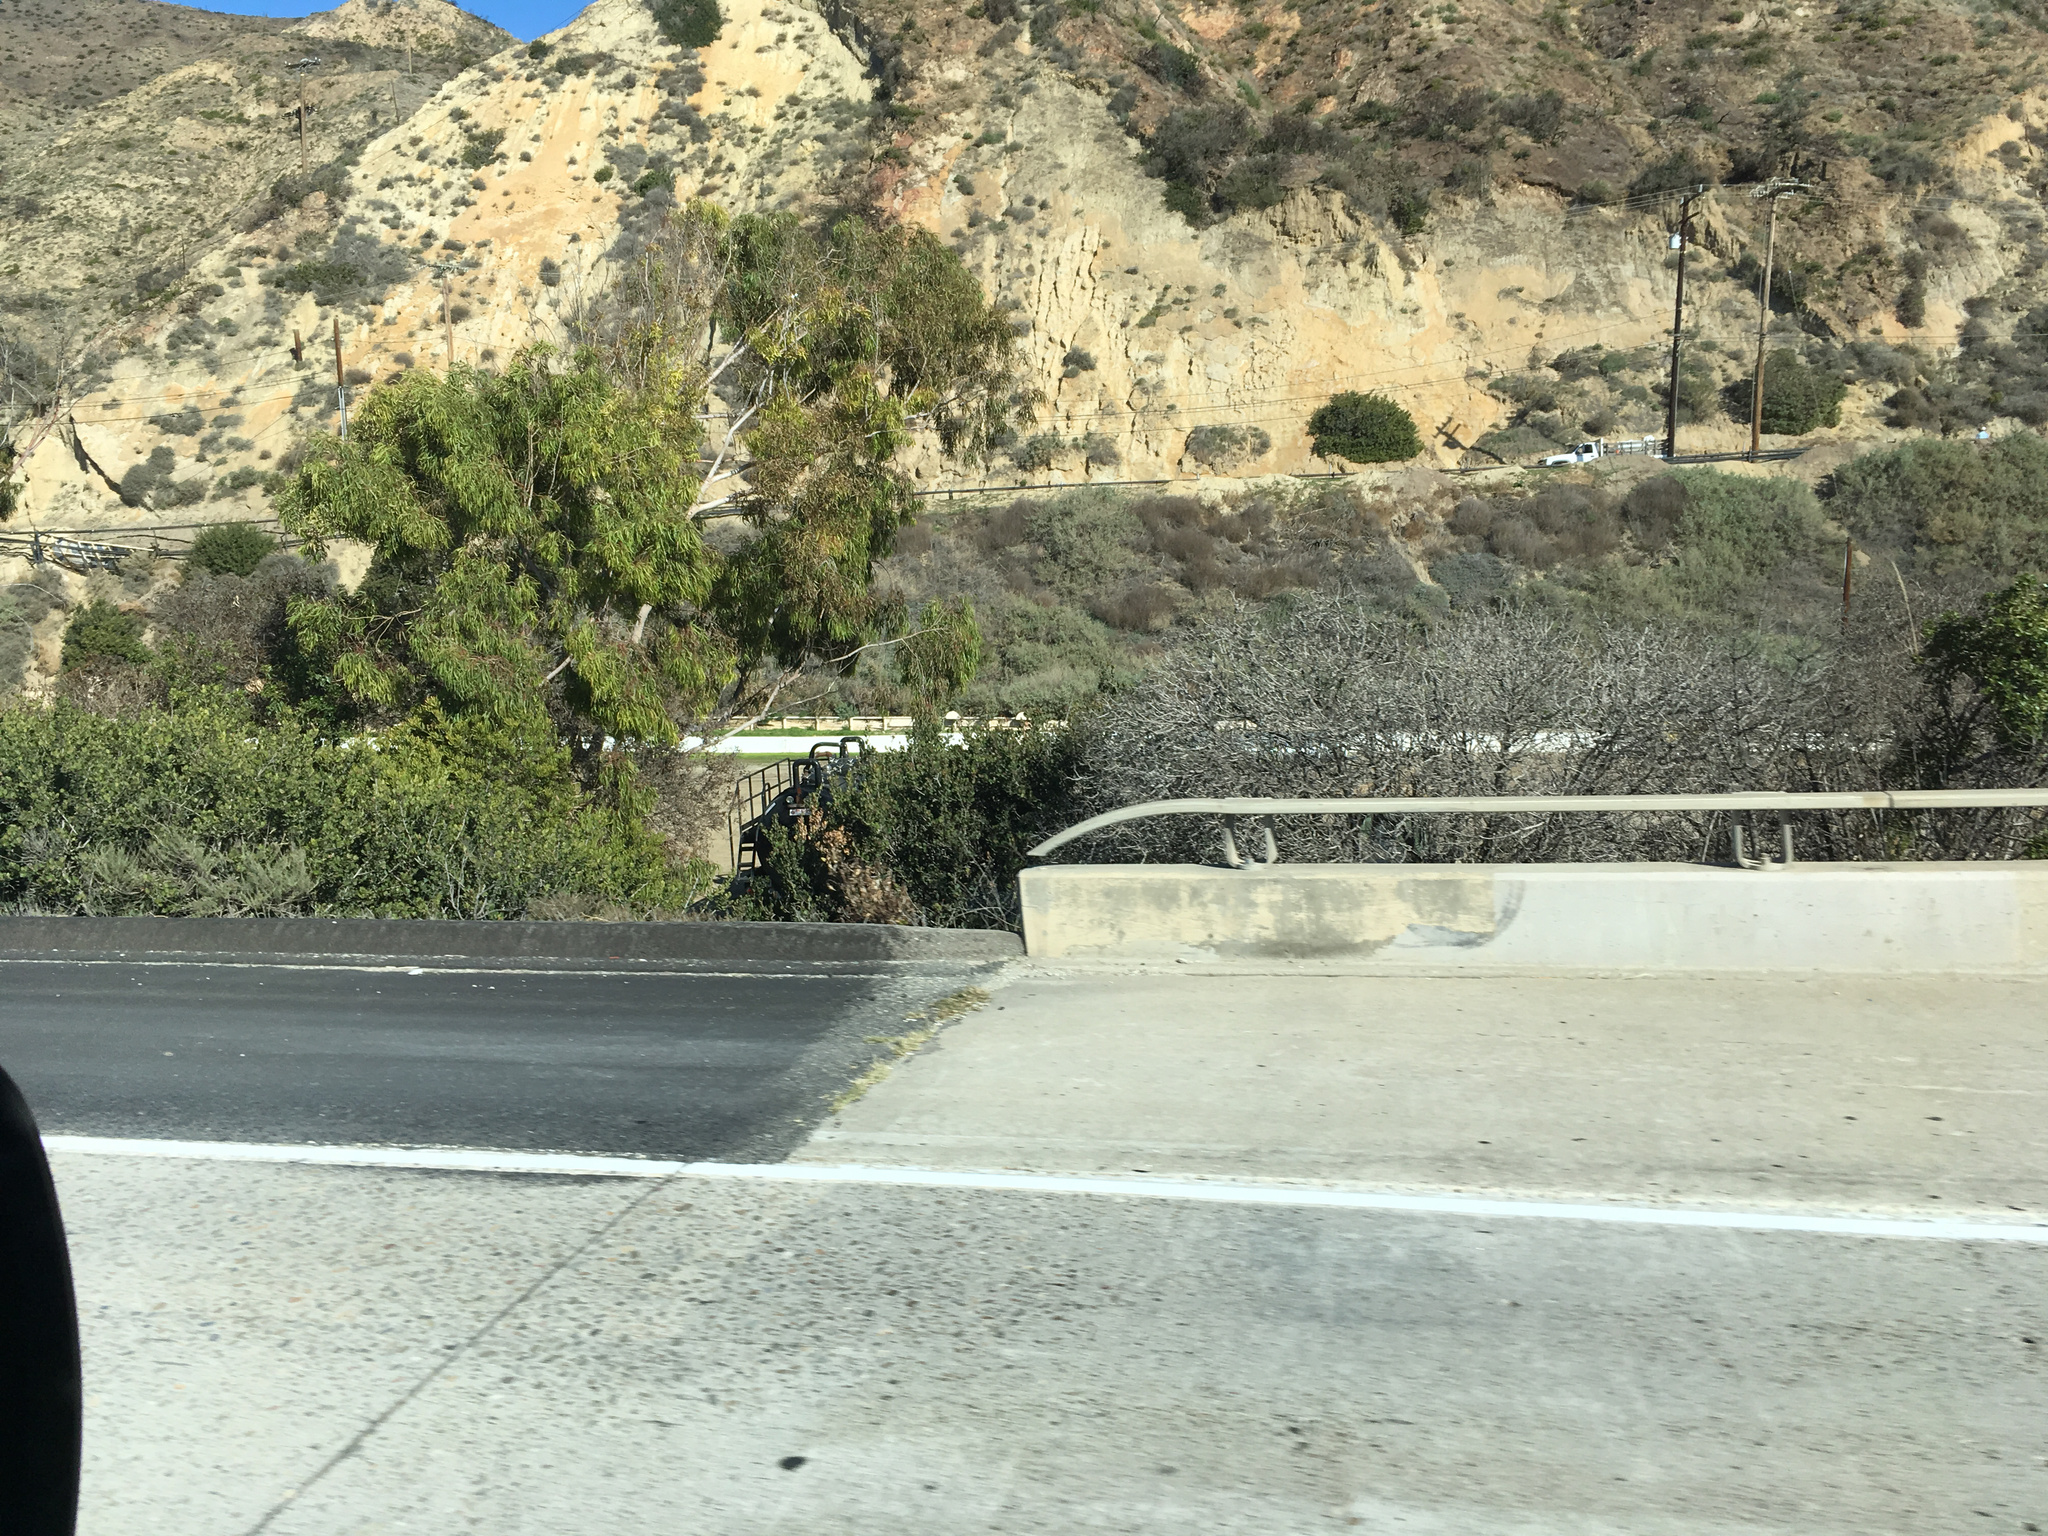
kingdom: Plantae
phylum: Tracheophyta
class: Magnoliopsida
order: Lamiales
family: Scrophulariaceae
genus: Myoporum
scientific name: Myoporum laetum
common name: Ngaio tree
